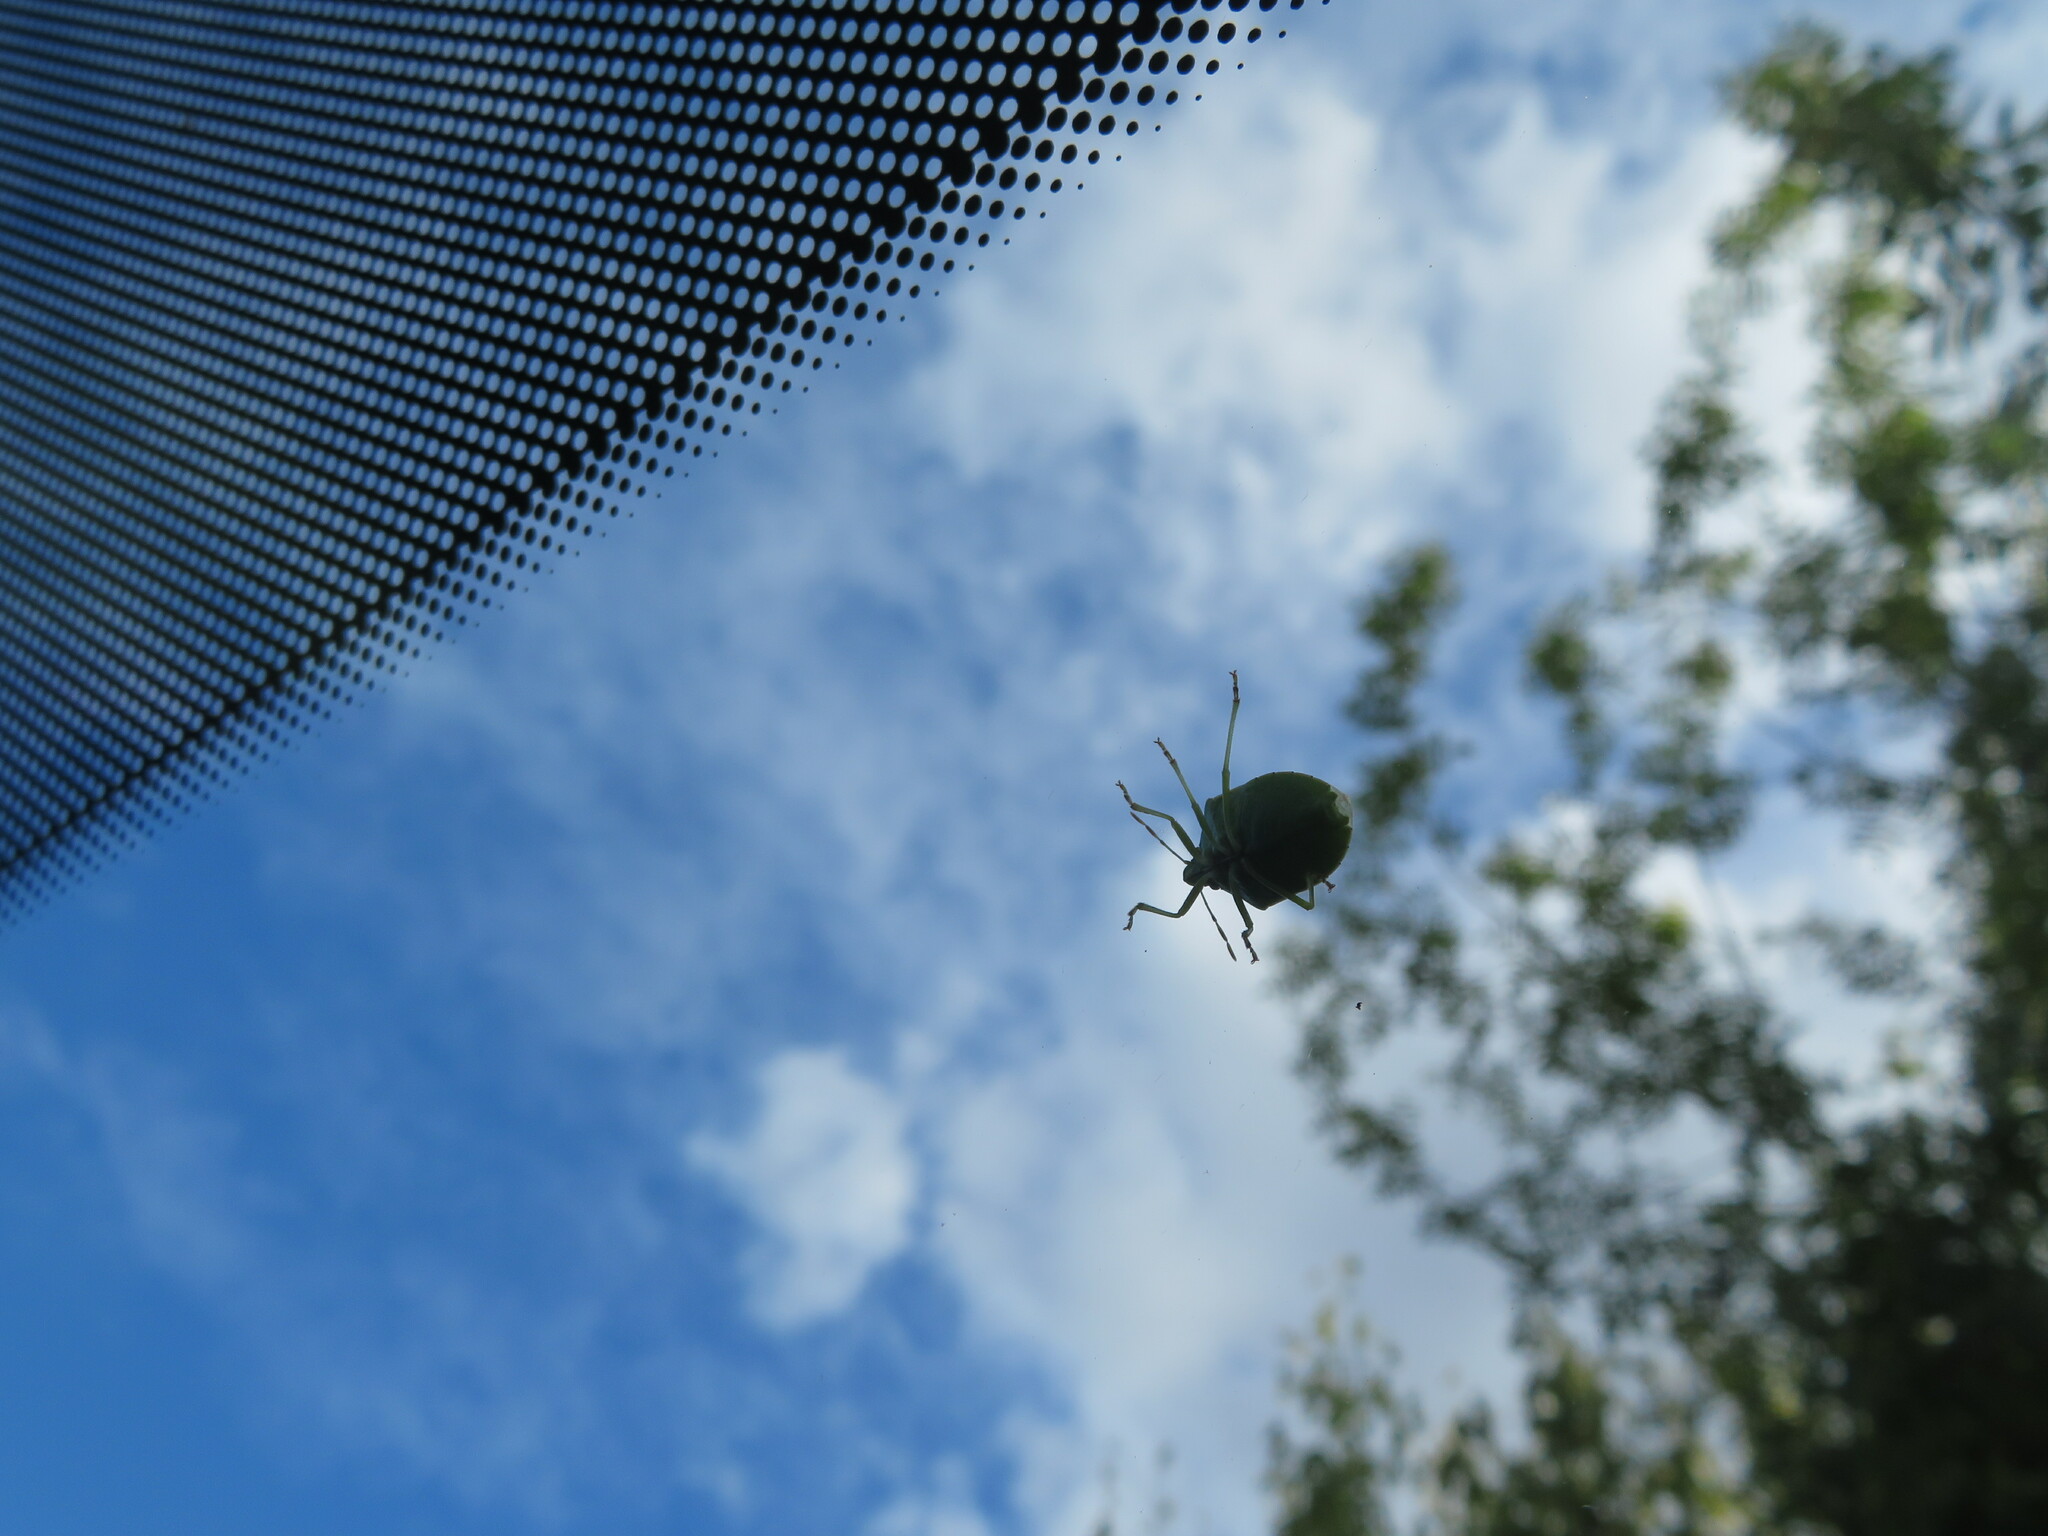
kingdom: Animalia
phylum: Arthropoda
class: Insecta
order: Hemiptera
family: Pentatomidae
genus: Palomena
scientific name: Palomena prasina
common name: Green shieldbug
